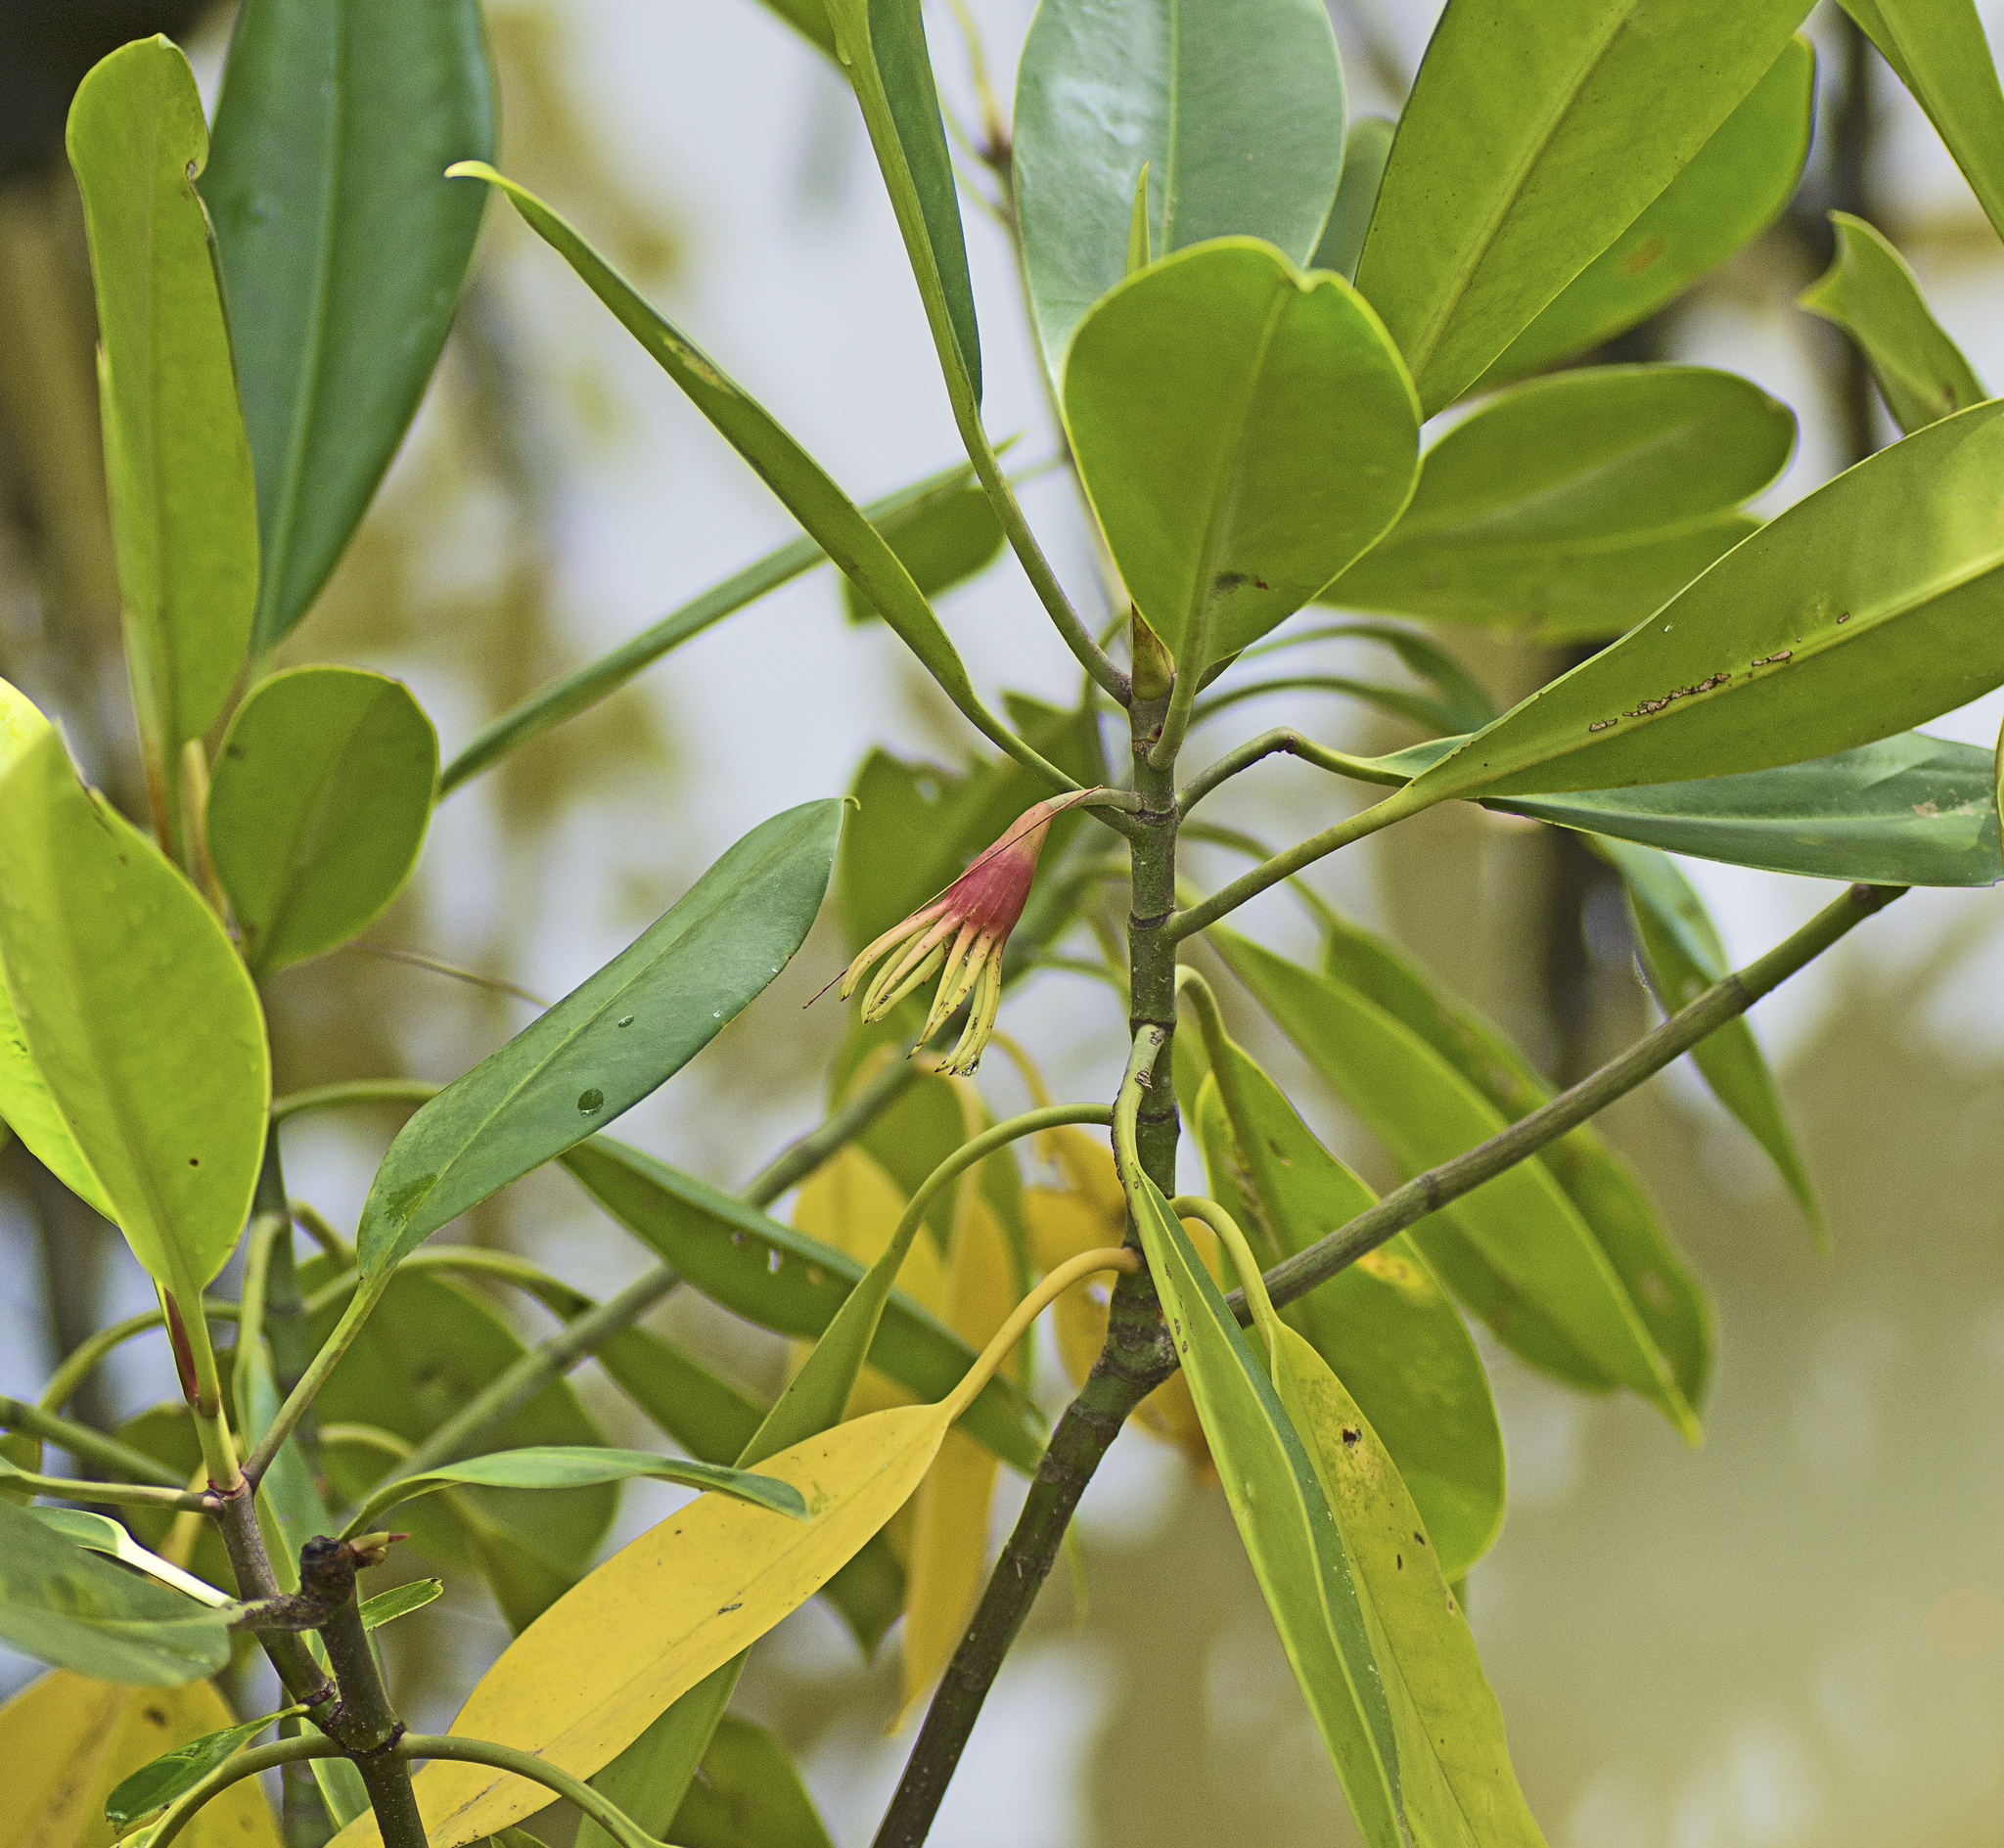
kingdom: Plantae
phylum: Tracheophyta
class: Magnoliopsida
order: Malpighiales
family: Rhizophoraceae
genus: Bruguiera
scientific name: Bruguiera gymnorhiza
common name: Oriental mangrove
